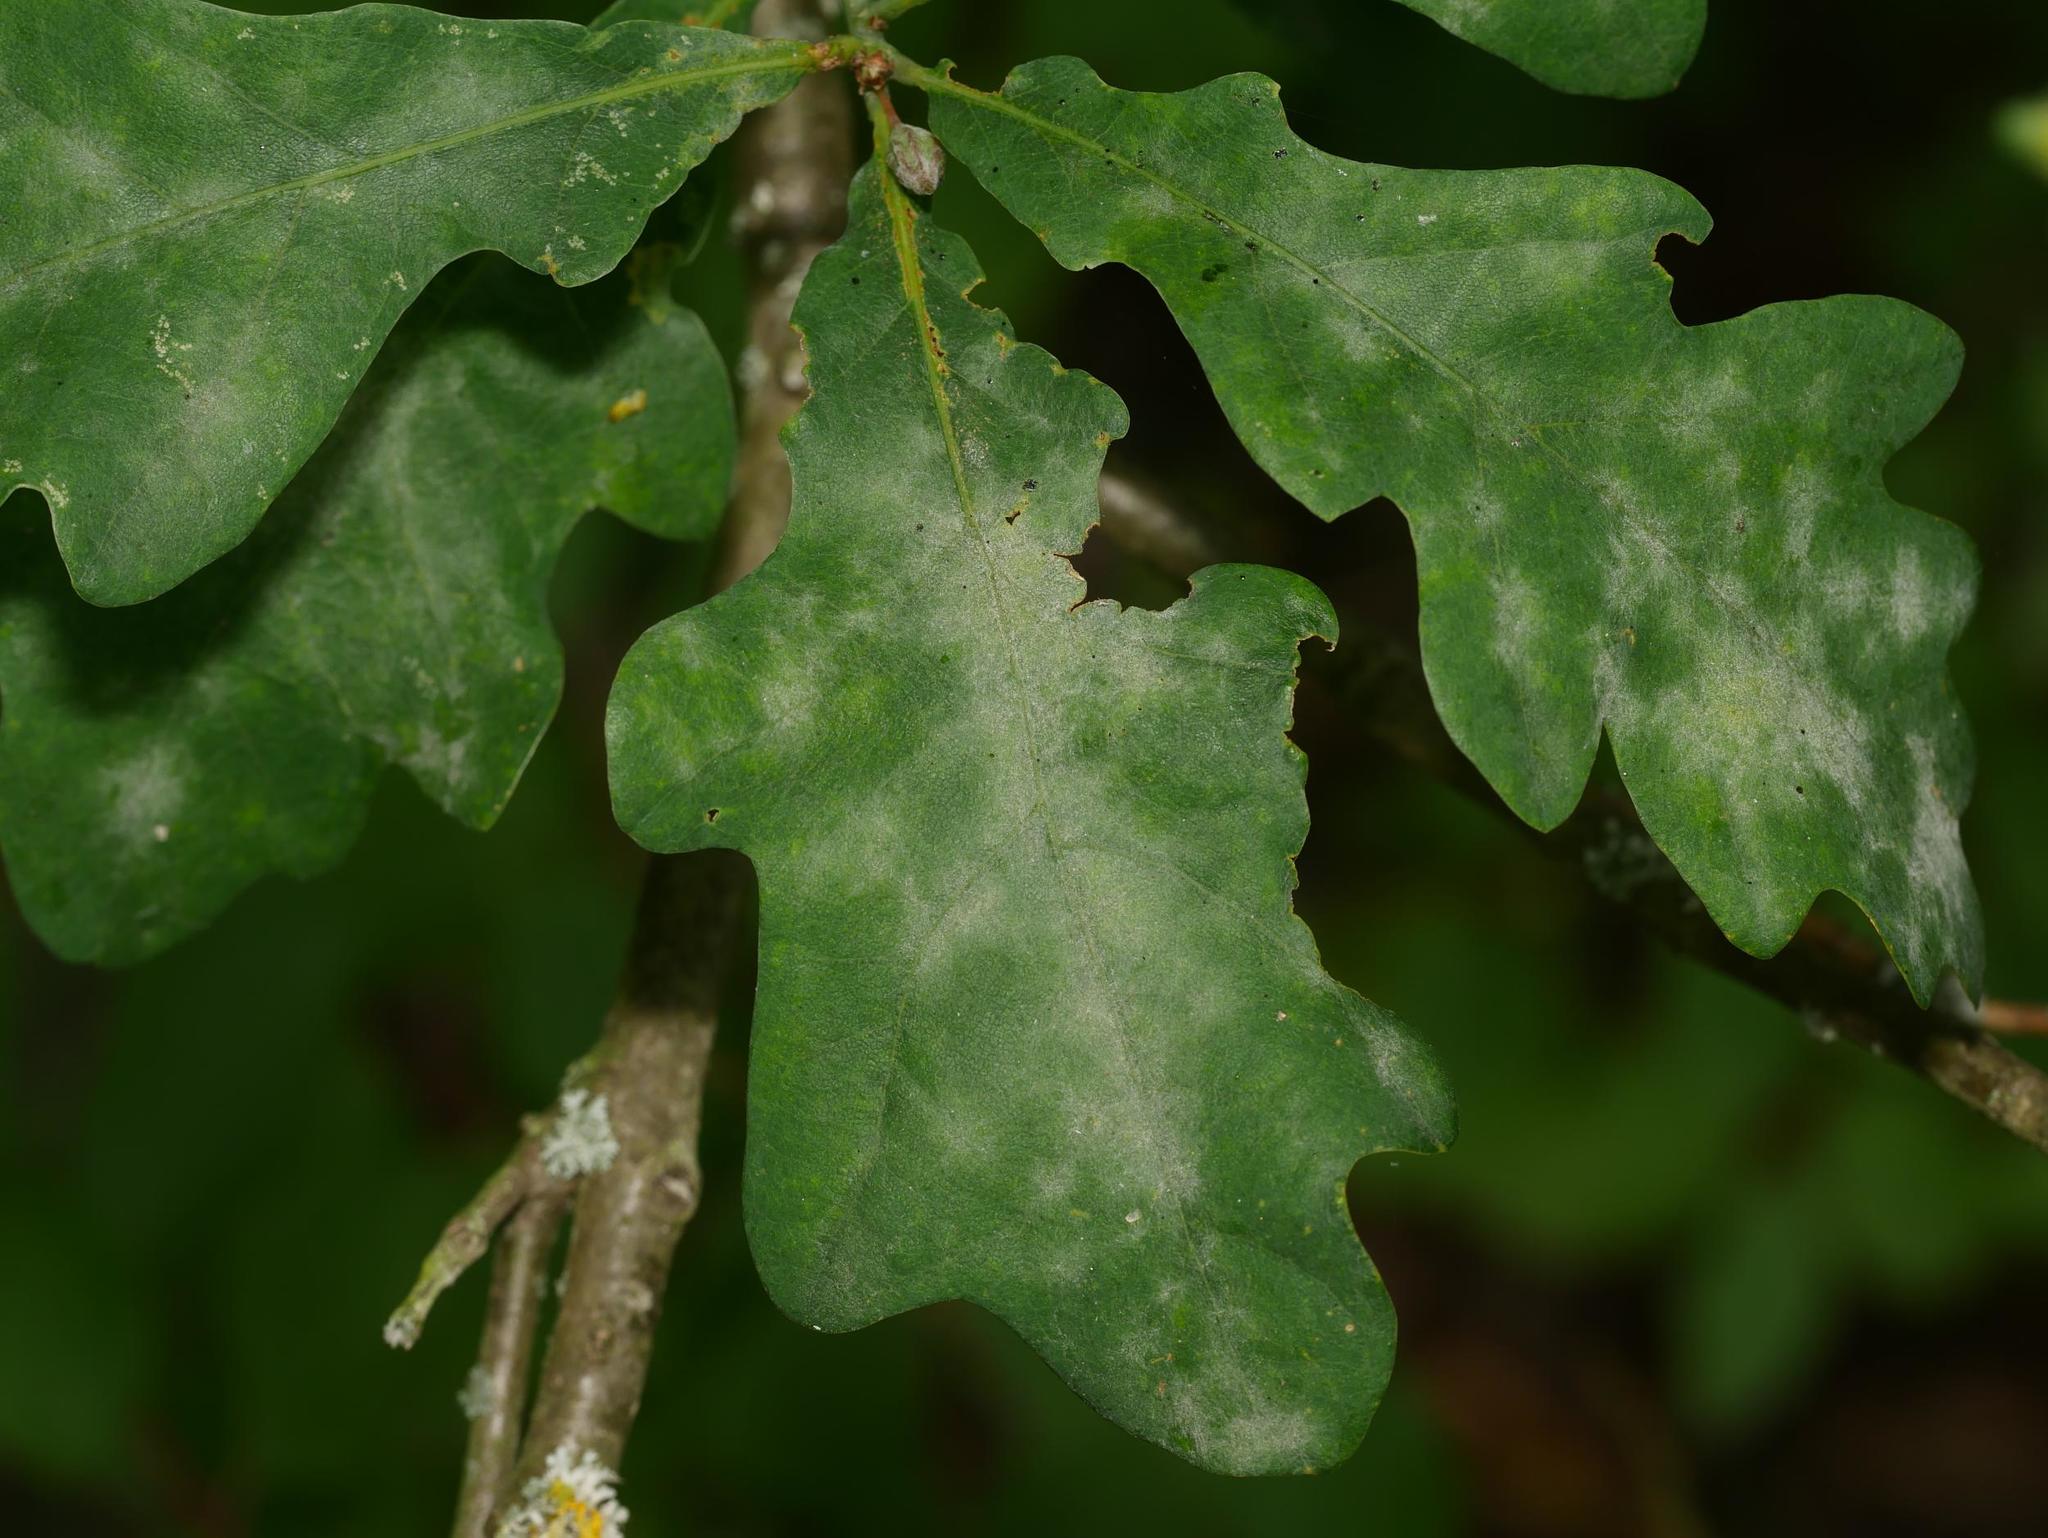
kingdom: Fungi
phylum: Ascomycota
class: Leotiomycetes
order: Helotiales
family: Erysiphaceae
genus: Erysiphe
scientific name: Erysiphe
